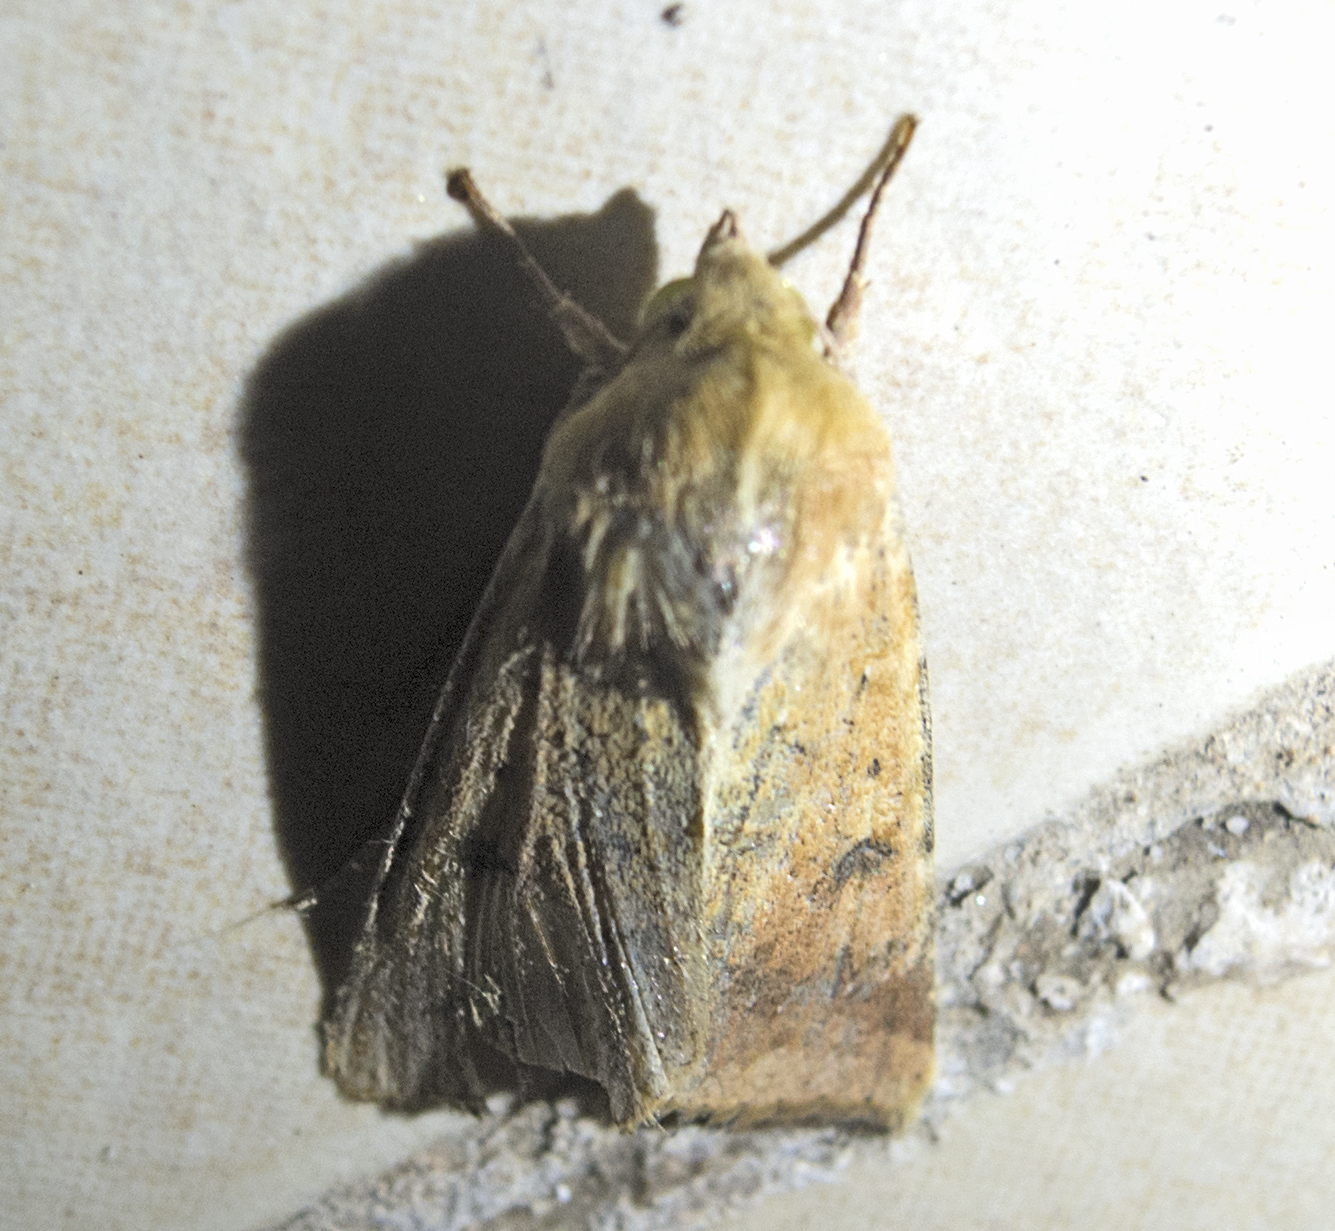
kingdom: Animalia
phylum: Arthropoda
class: Insecta
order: Lepidoptera
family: Noctuidae
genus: Helicoverpa
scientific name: Helicoverpa armigera
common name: Cotton bollworm
